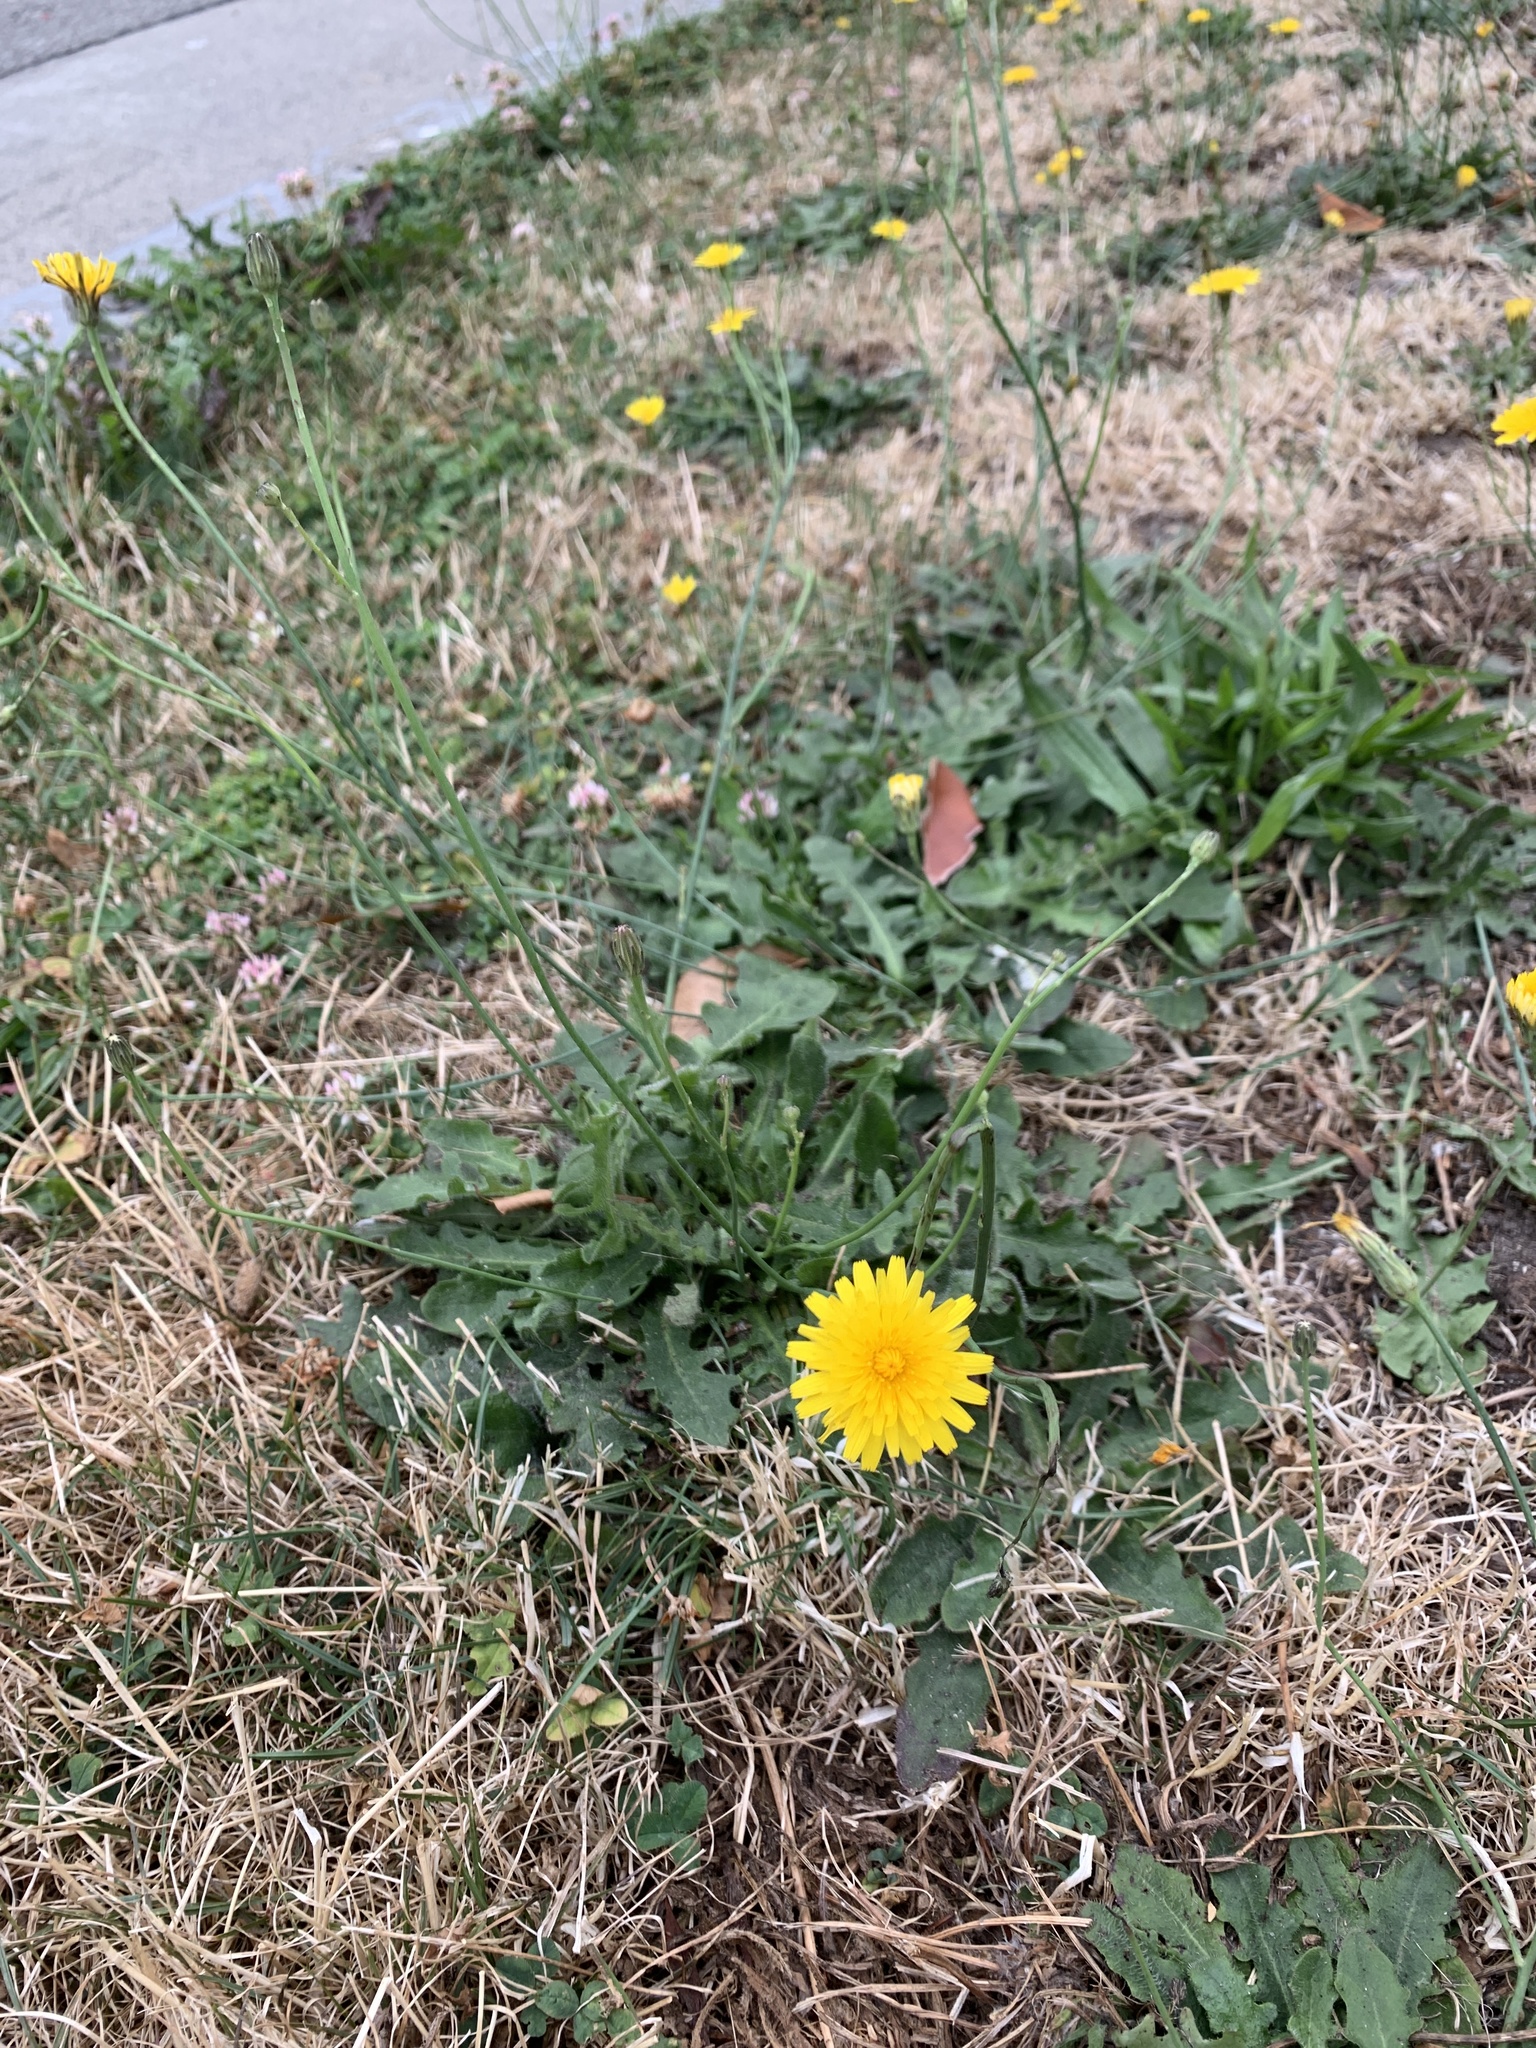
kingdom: Plantae
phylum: Tracheophyta
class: Magnoliopsida
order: Asterales
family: Asteraceae
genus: Hypochaeris
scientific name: Hypochaeris radicata
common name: Flatweed
